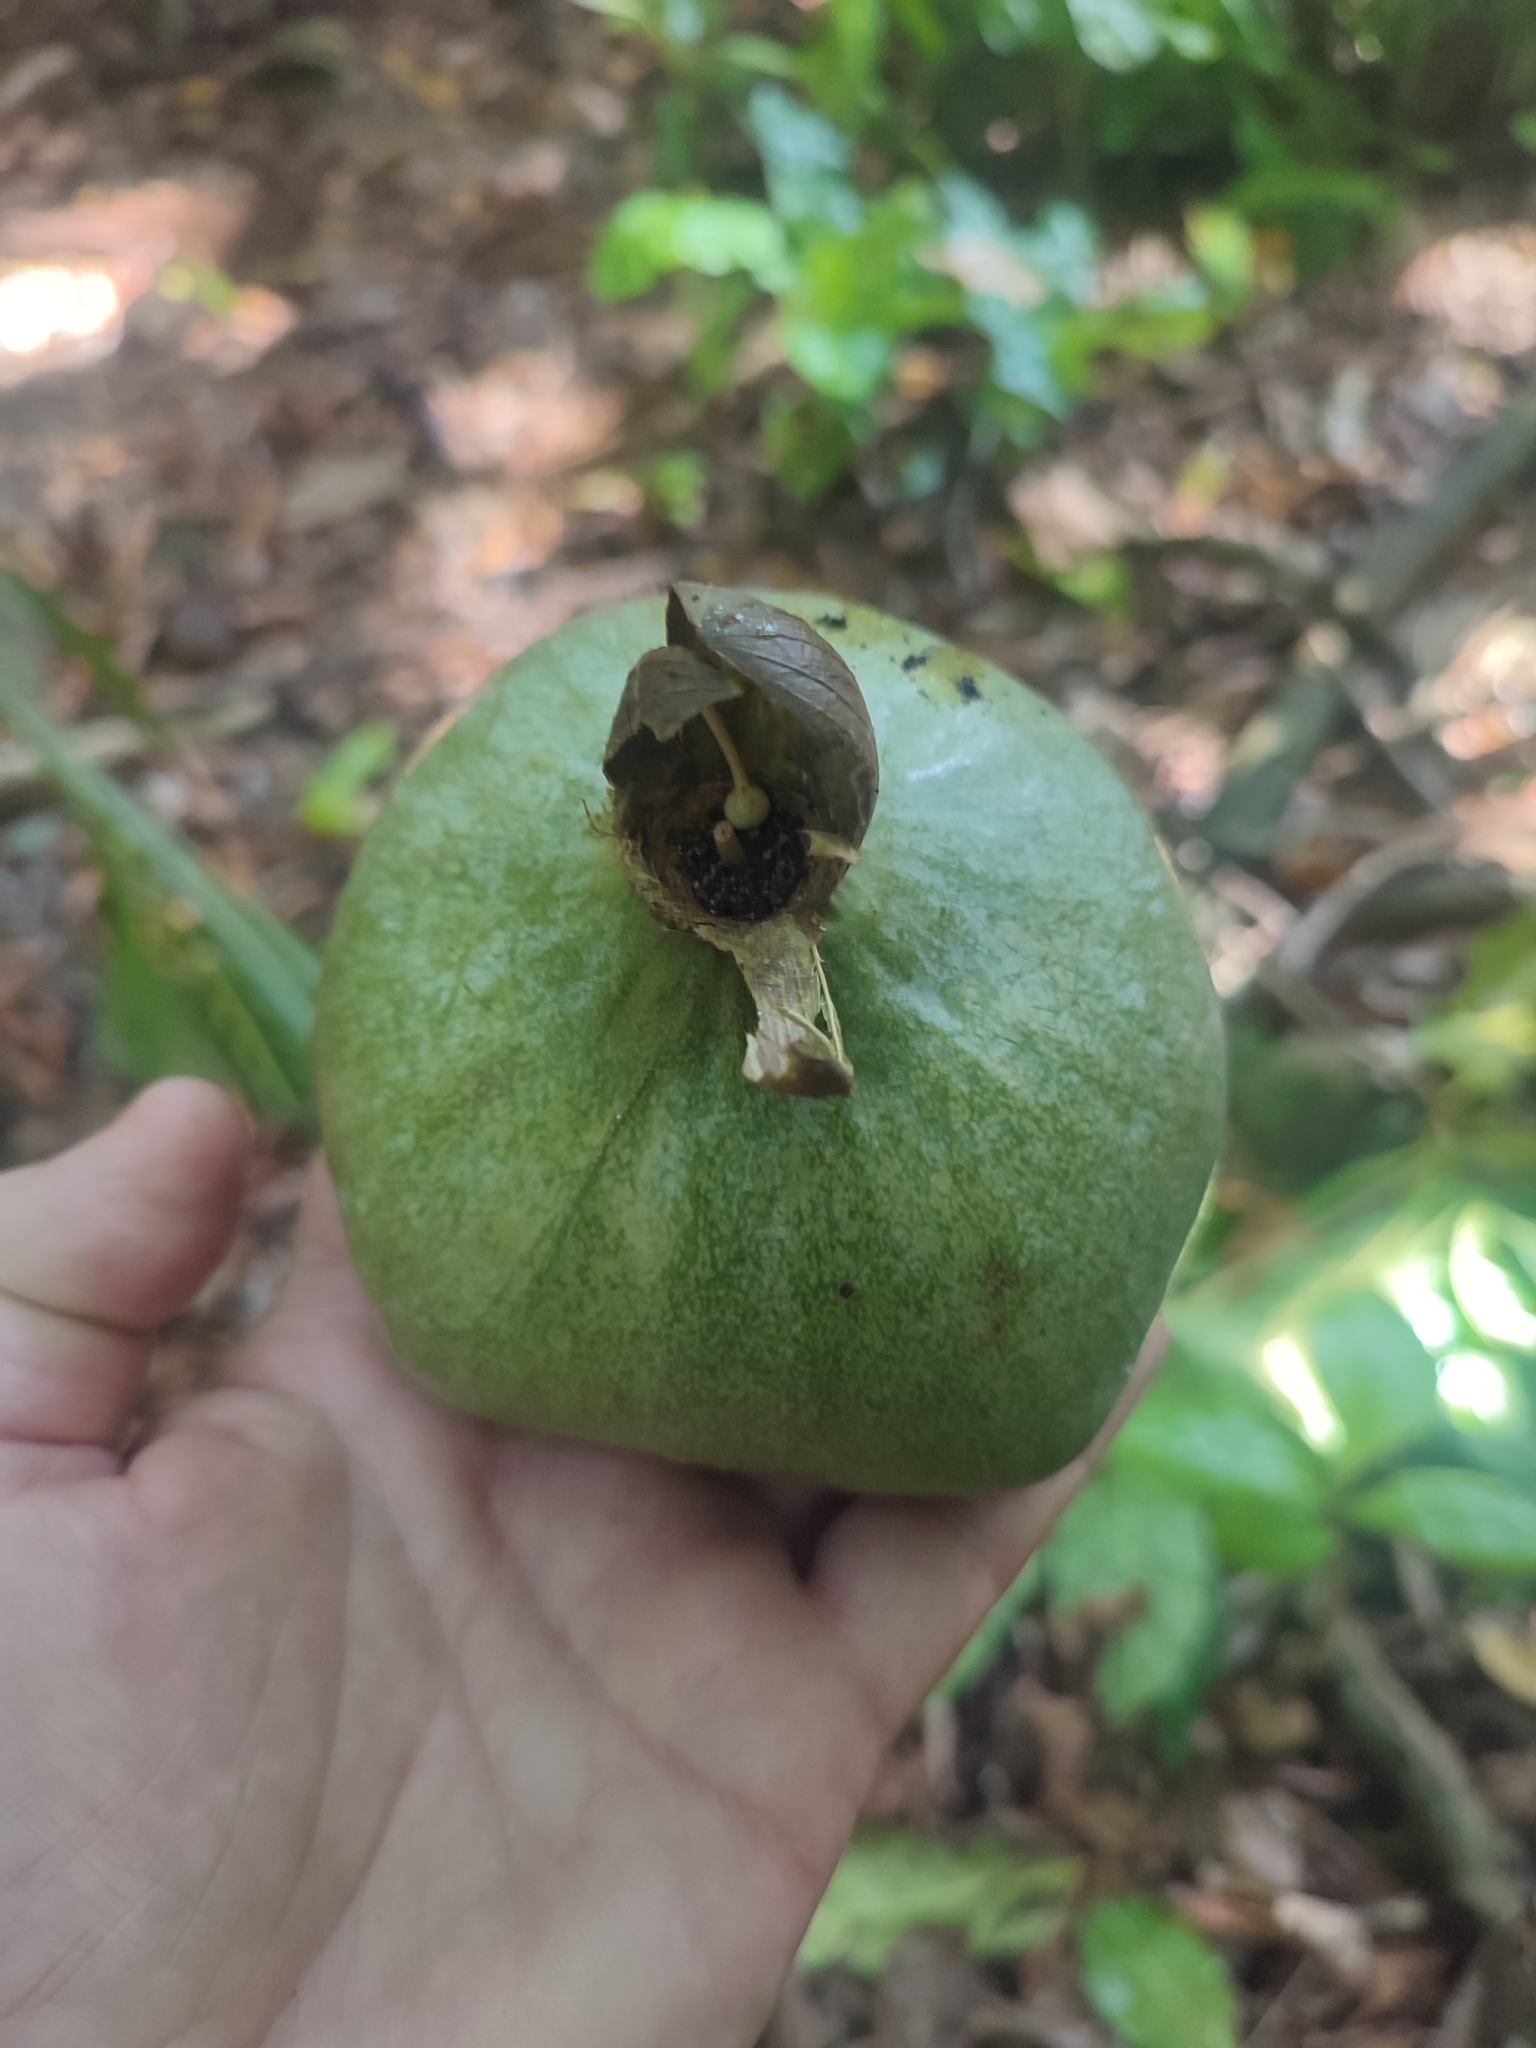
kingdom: Plantae
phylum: Tracheophyta
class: Magnoliopsida
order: Ericales
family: Lecythidaceae
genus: Barringtonia
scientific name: Barringtonia asiatica
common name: Mango-pine
